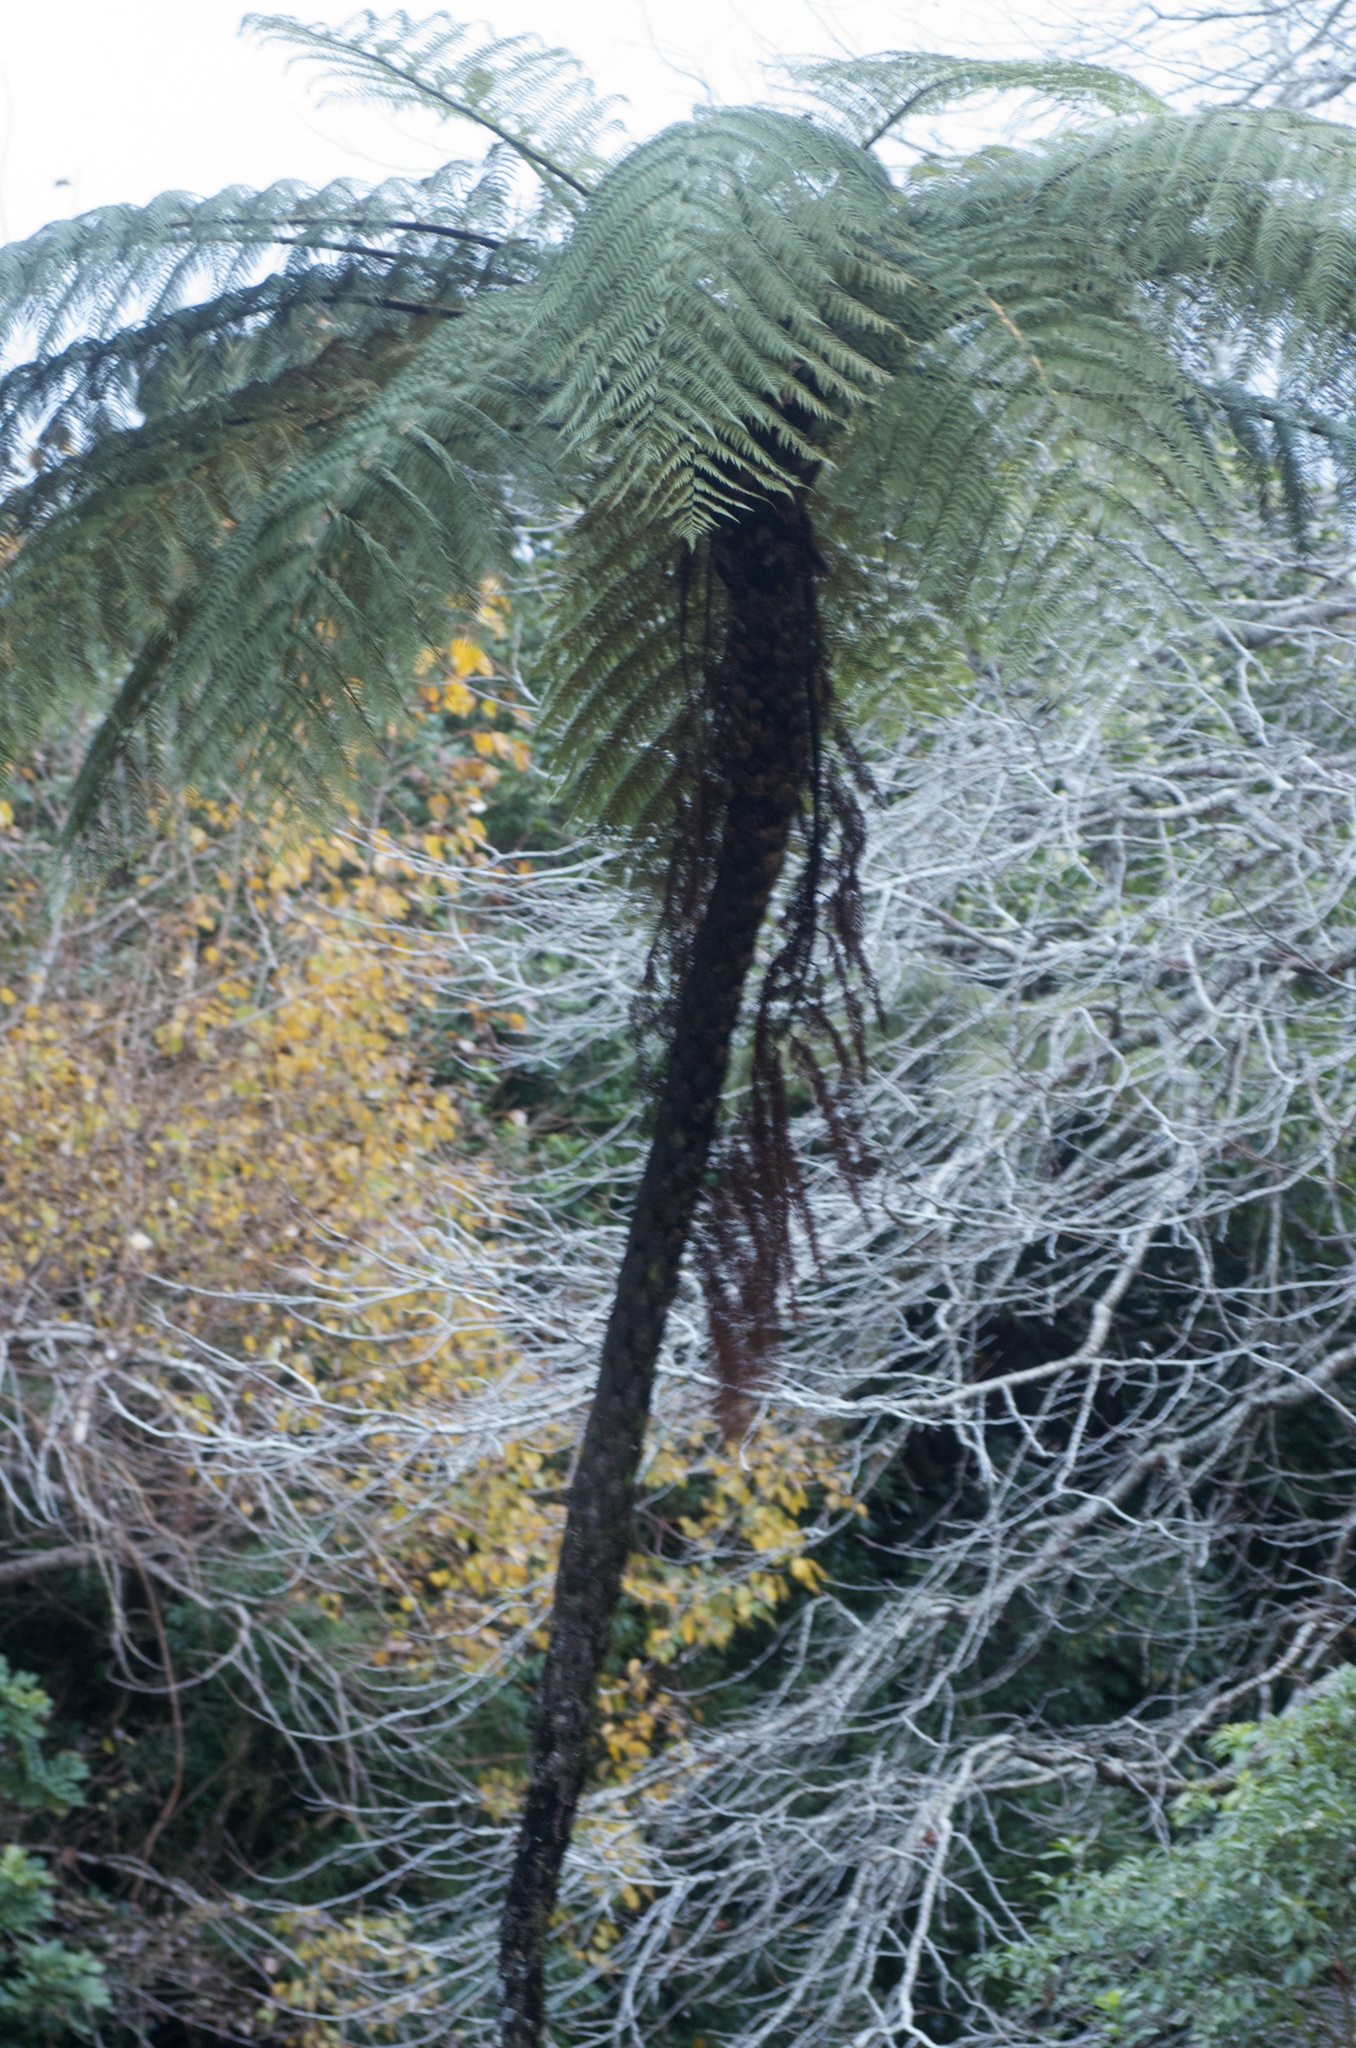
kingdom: Plantae
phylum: Tracheophyta
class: Polypodiopsida
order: Cyatheales
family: Cyatheaceae
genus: Sphaeropteris
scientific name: Sphaeropteris medullaris
